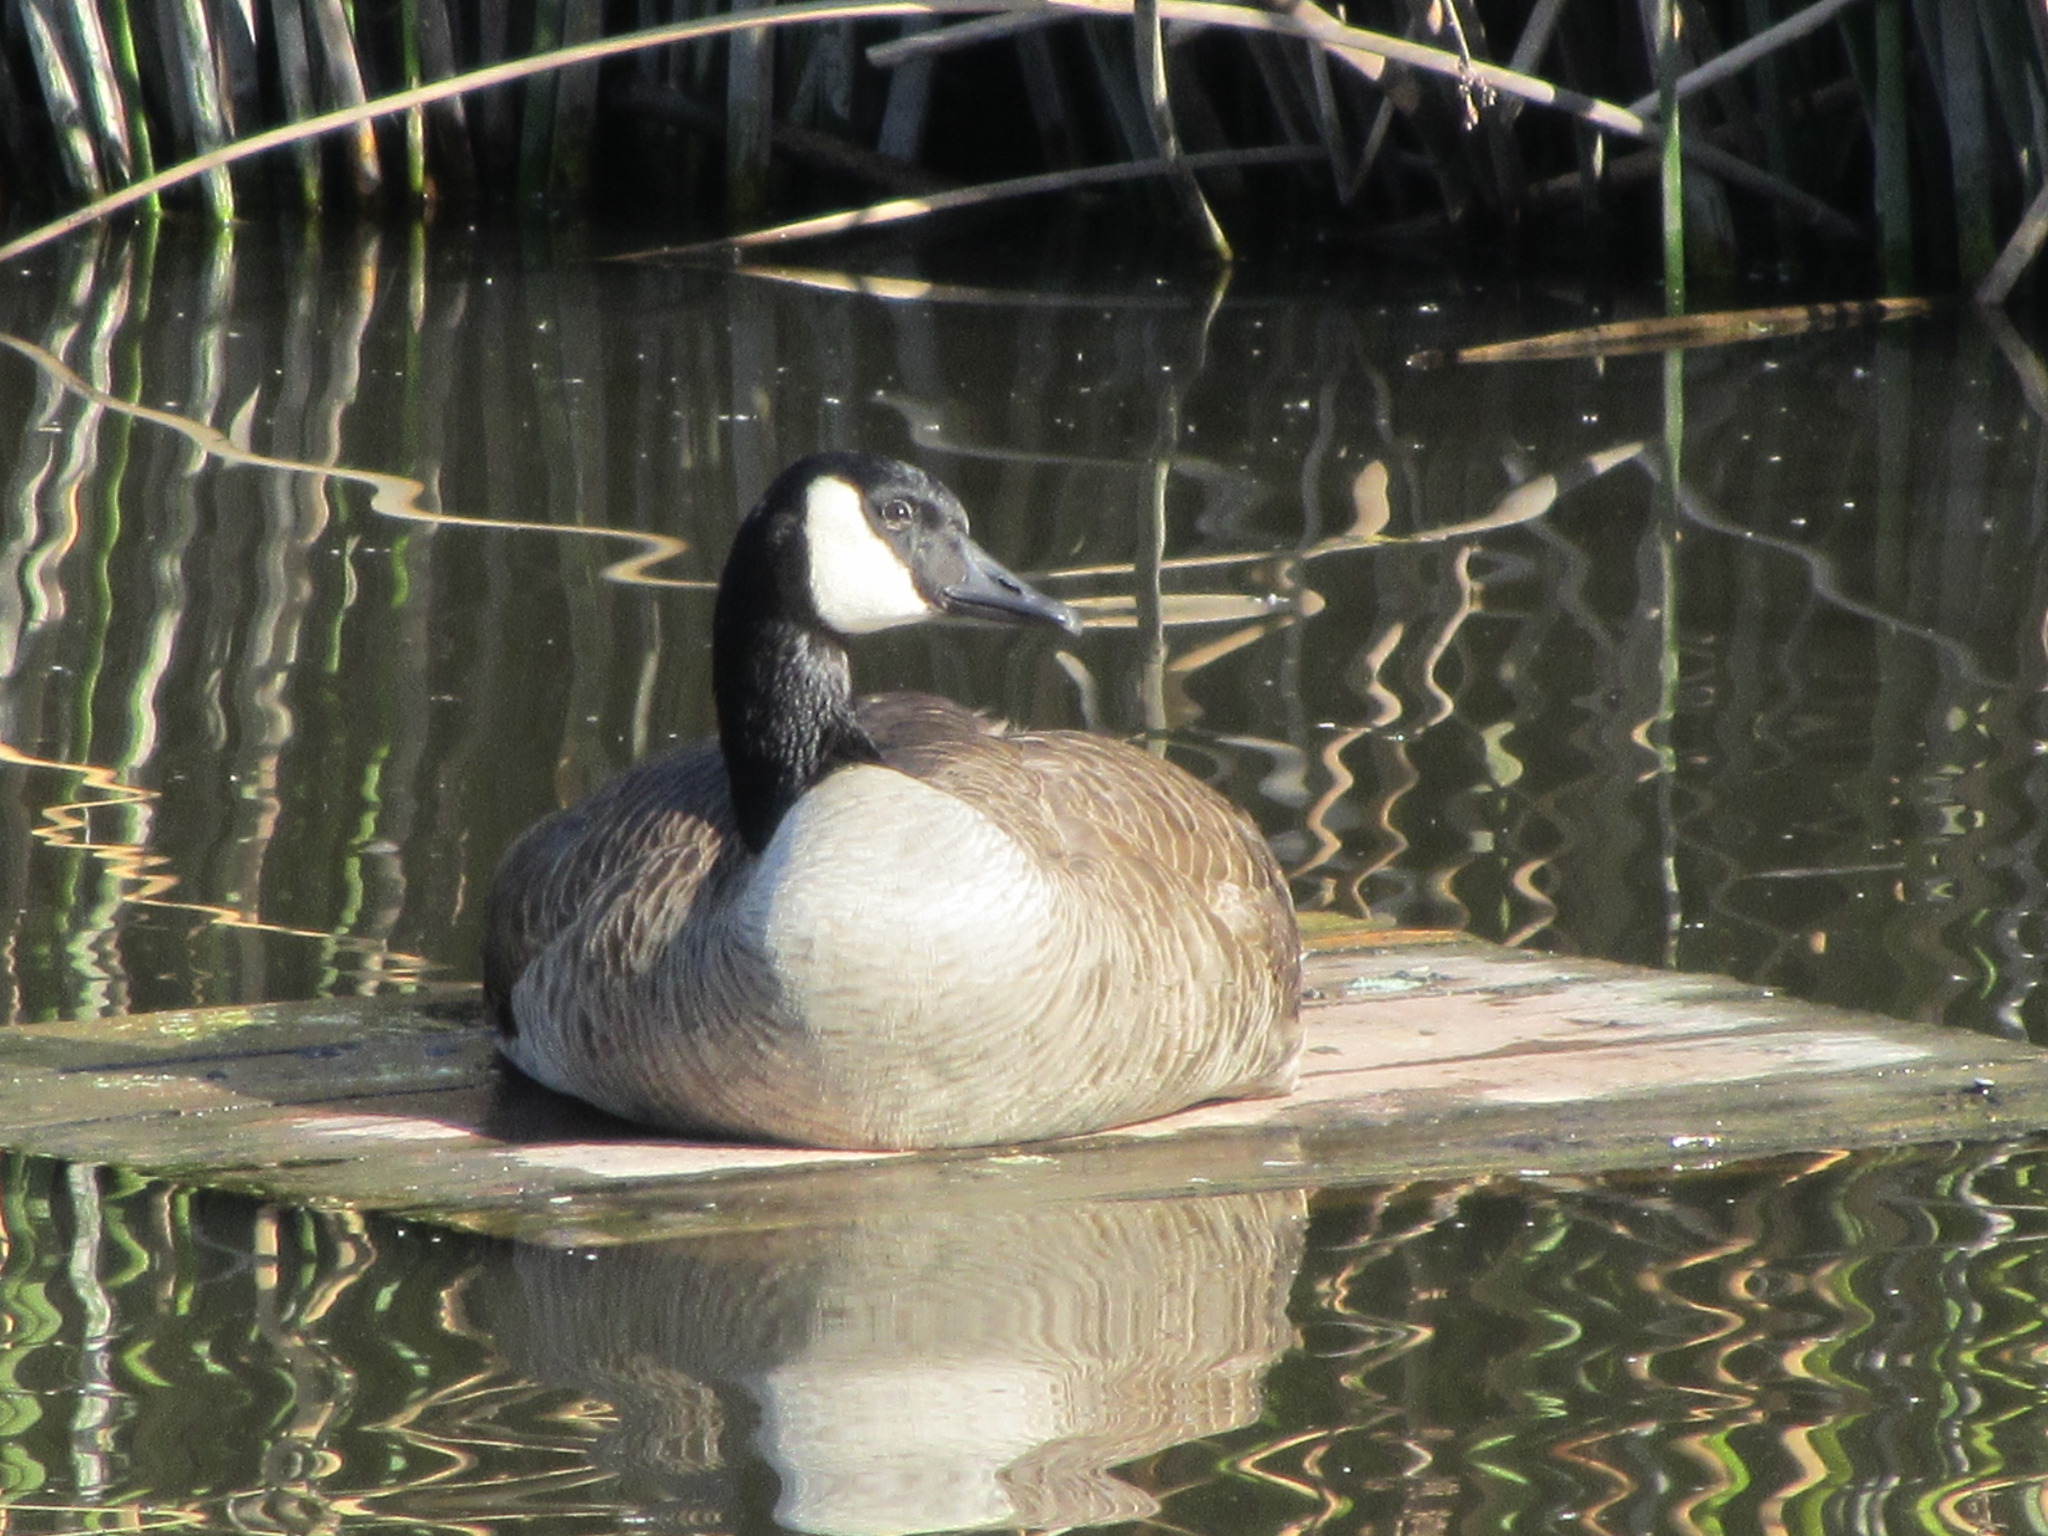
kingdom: Animalia
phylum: Chordata
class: Aves
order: Anseriformes
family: Anatidae
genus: Branta
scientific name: Branta canadensis
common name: Canada goose
